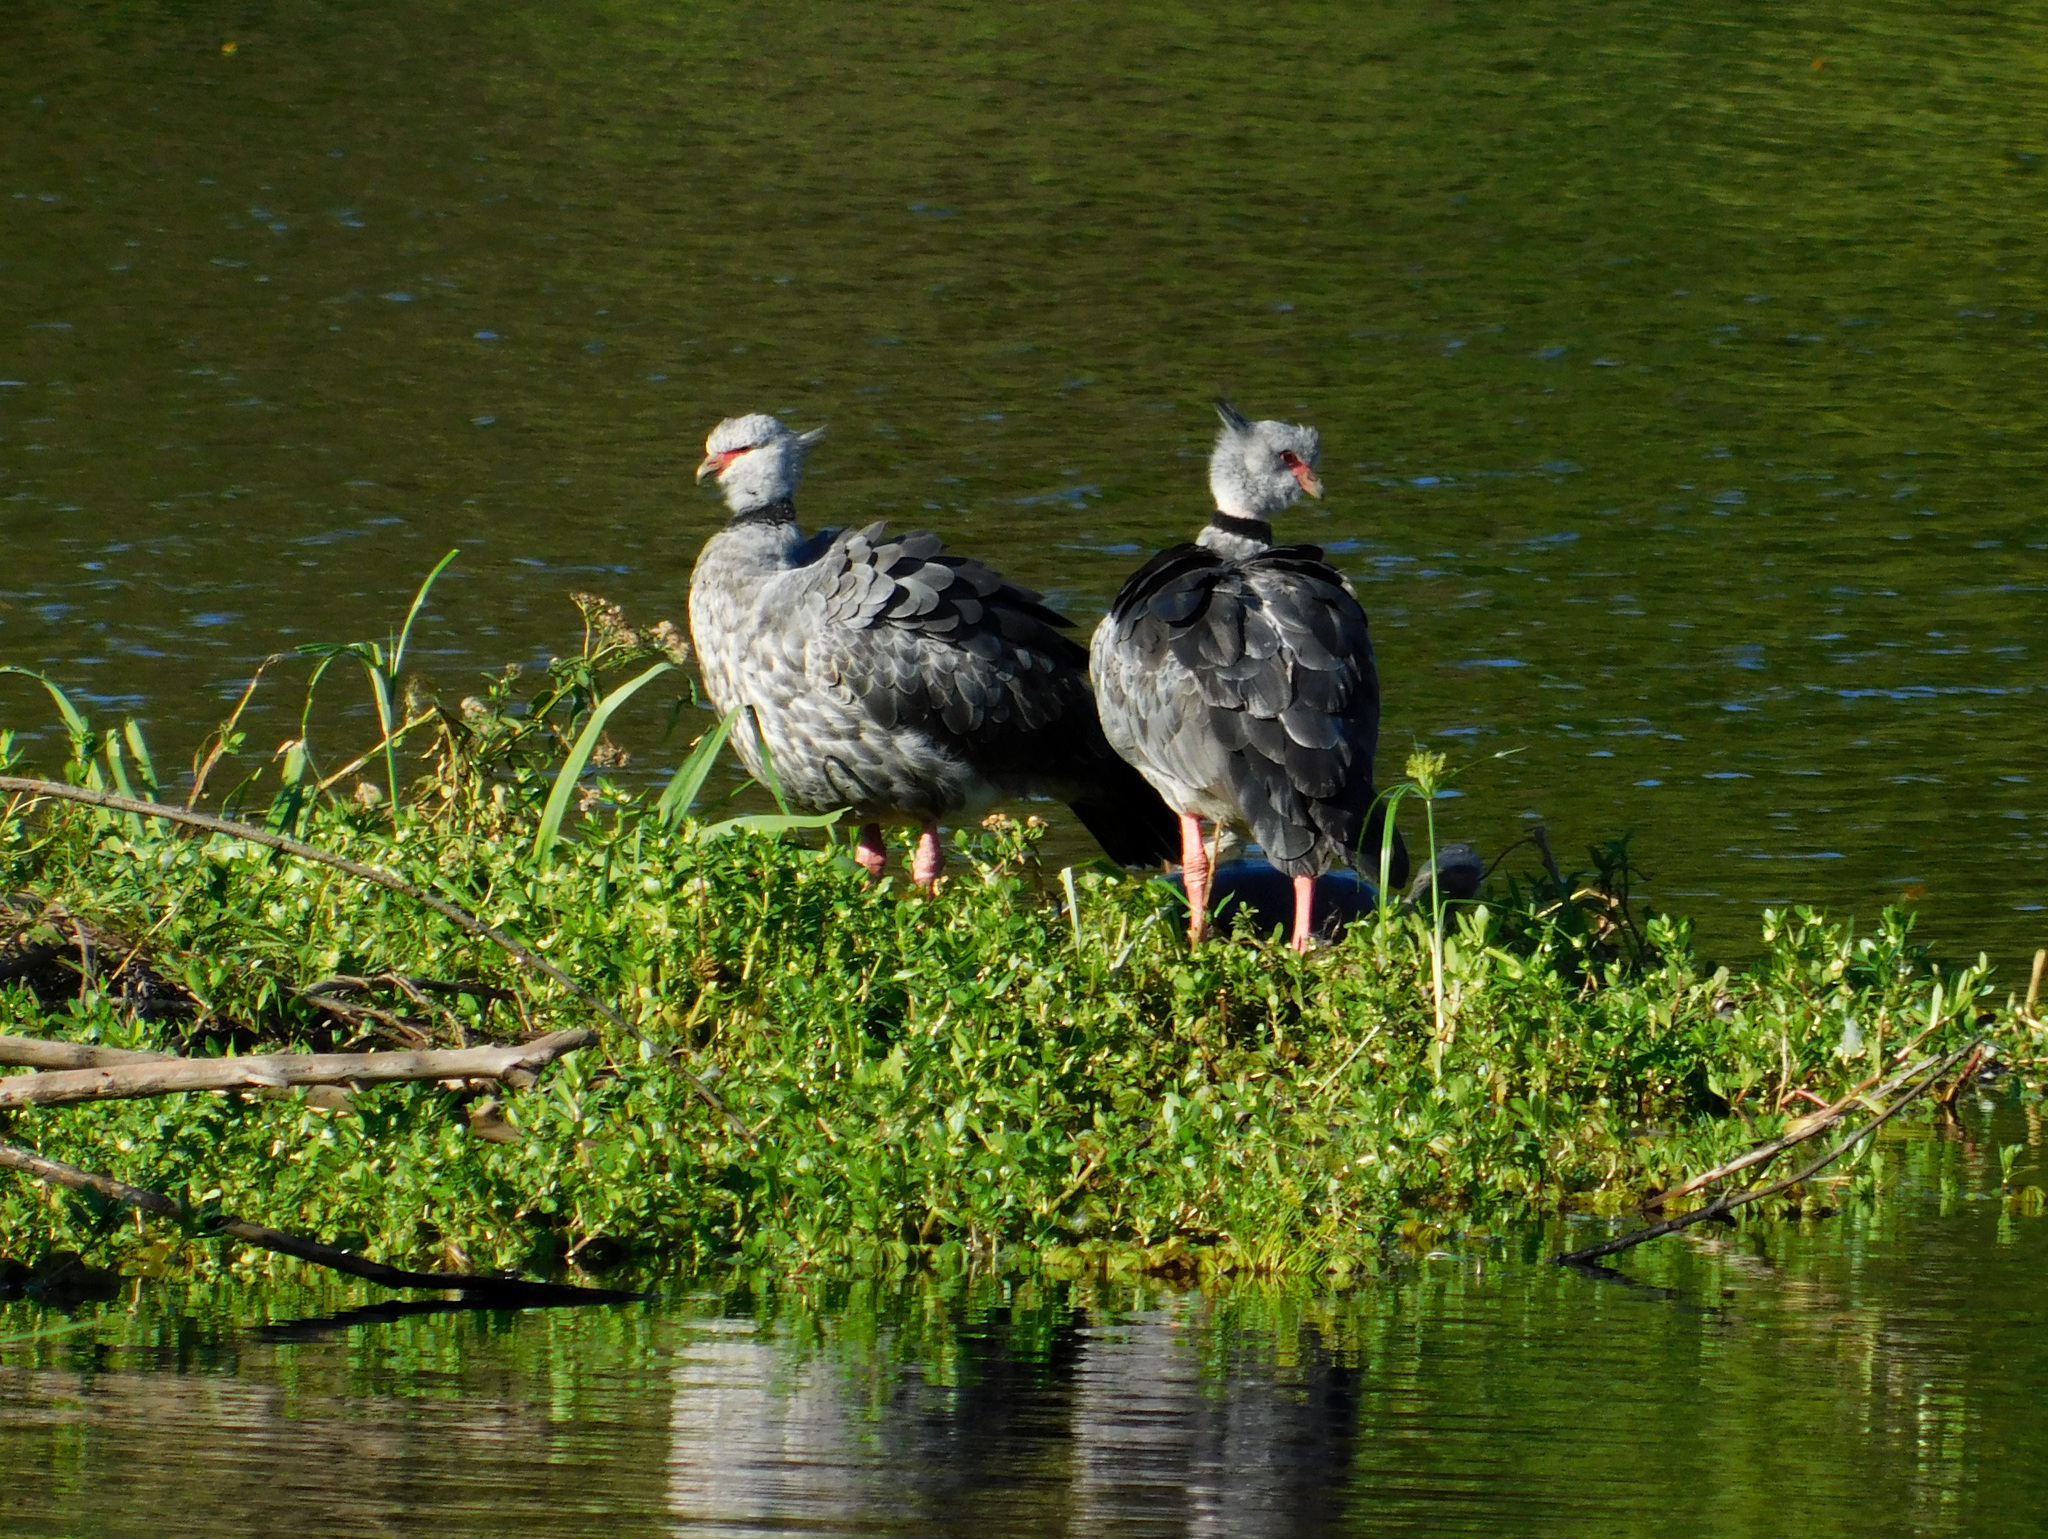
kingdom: Animalia
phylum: Chordata
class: Aves
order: Anseriformes
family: Anhimidae
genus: Chauna
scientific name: Chauna torquata
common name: Southern screamer
